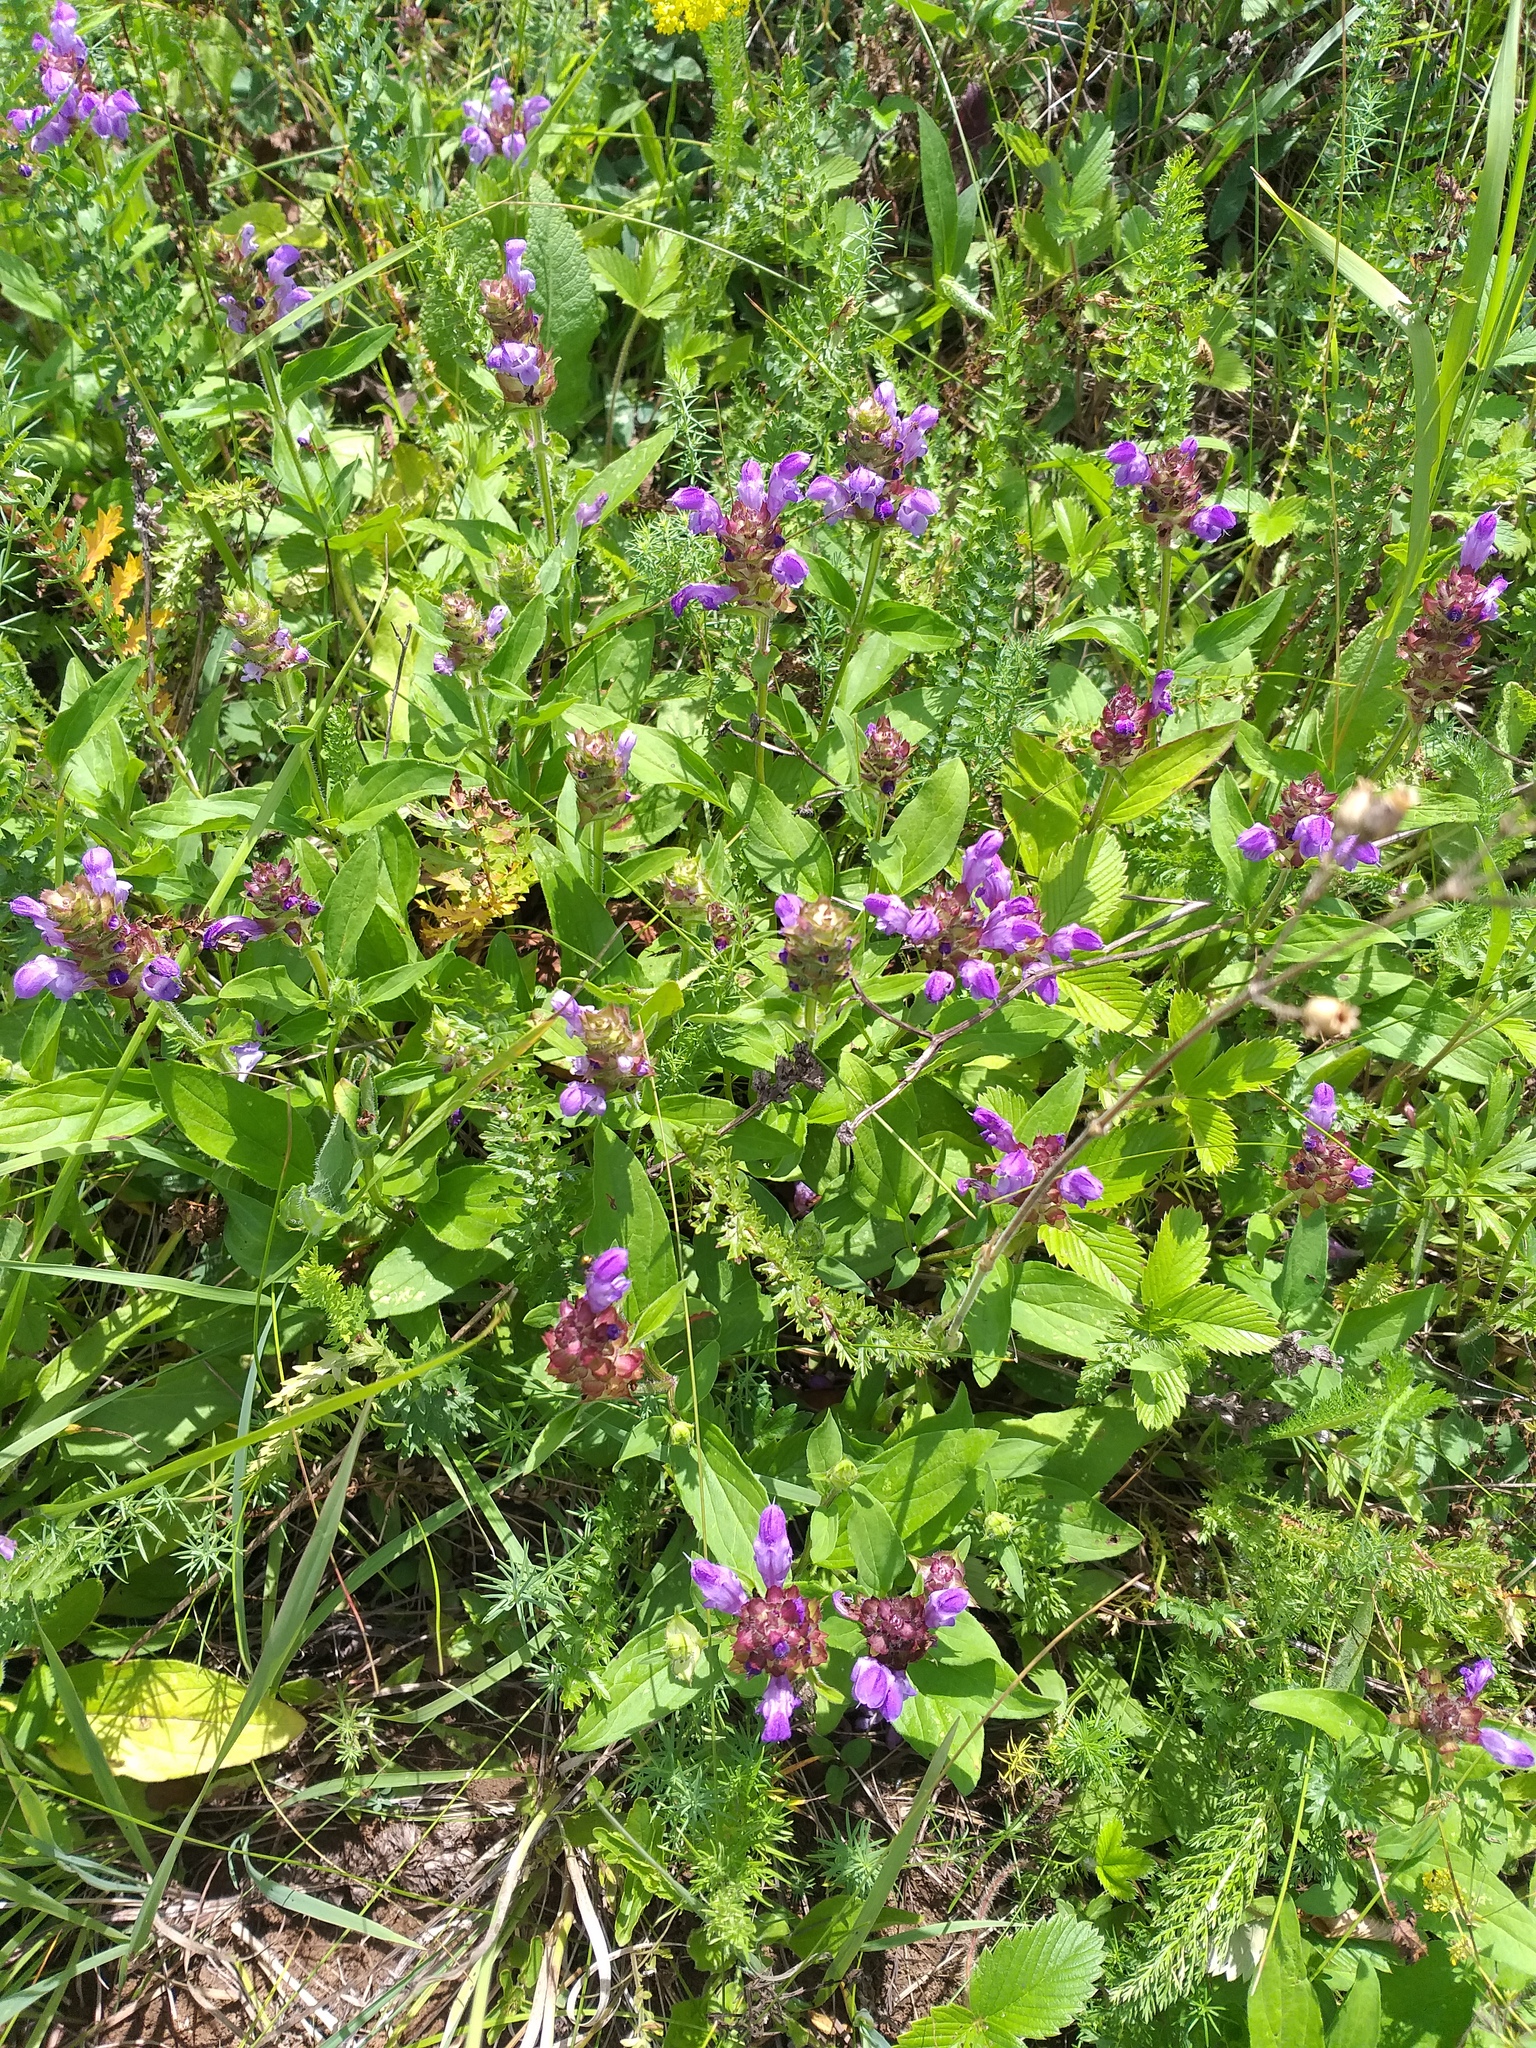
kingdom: Plantae
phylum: Tracheophyta
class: Magnoliopsida
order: Lamiales
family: Lamiaceae
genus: Prunella
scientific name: Prunella grandiflora
